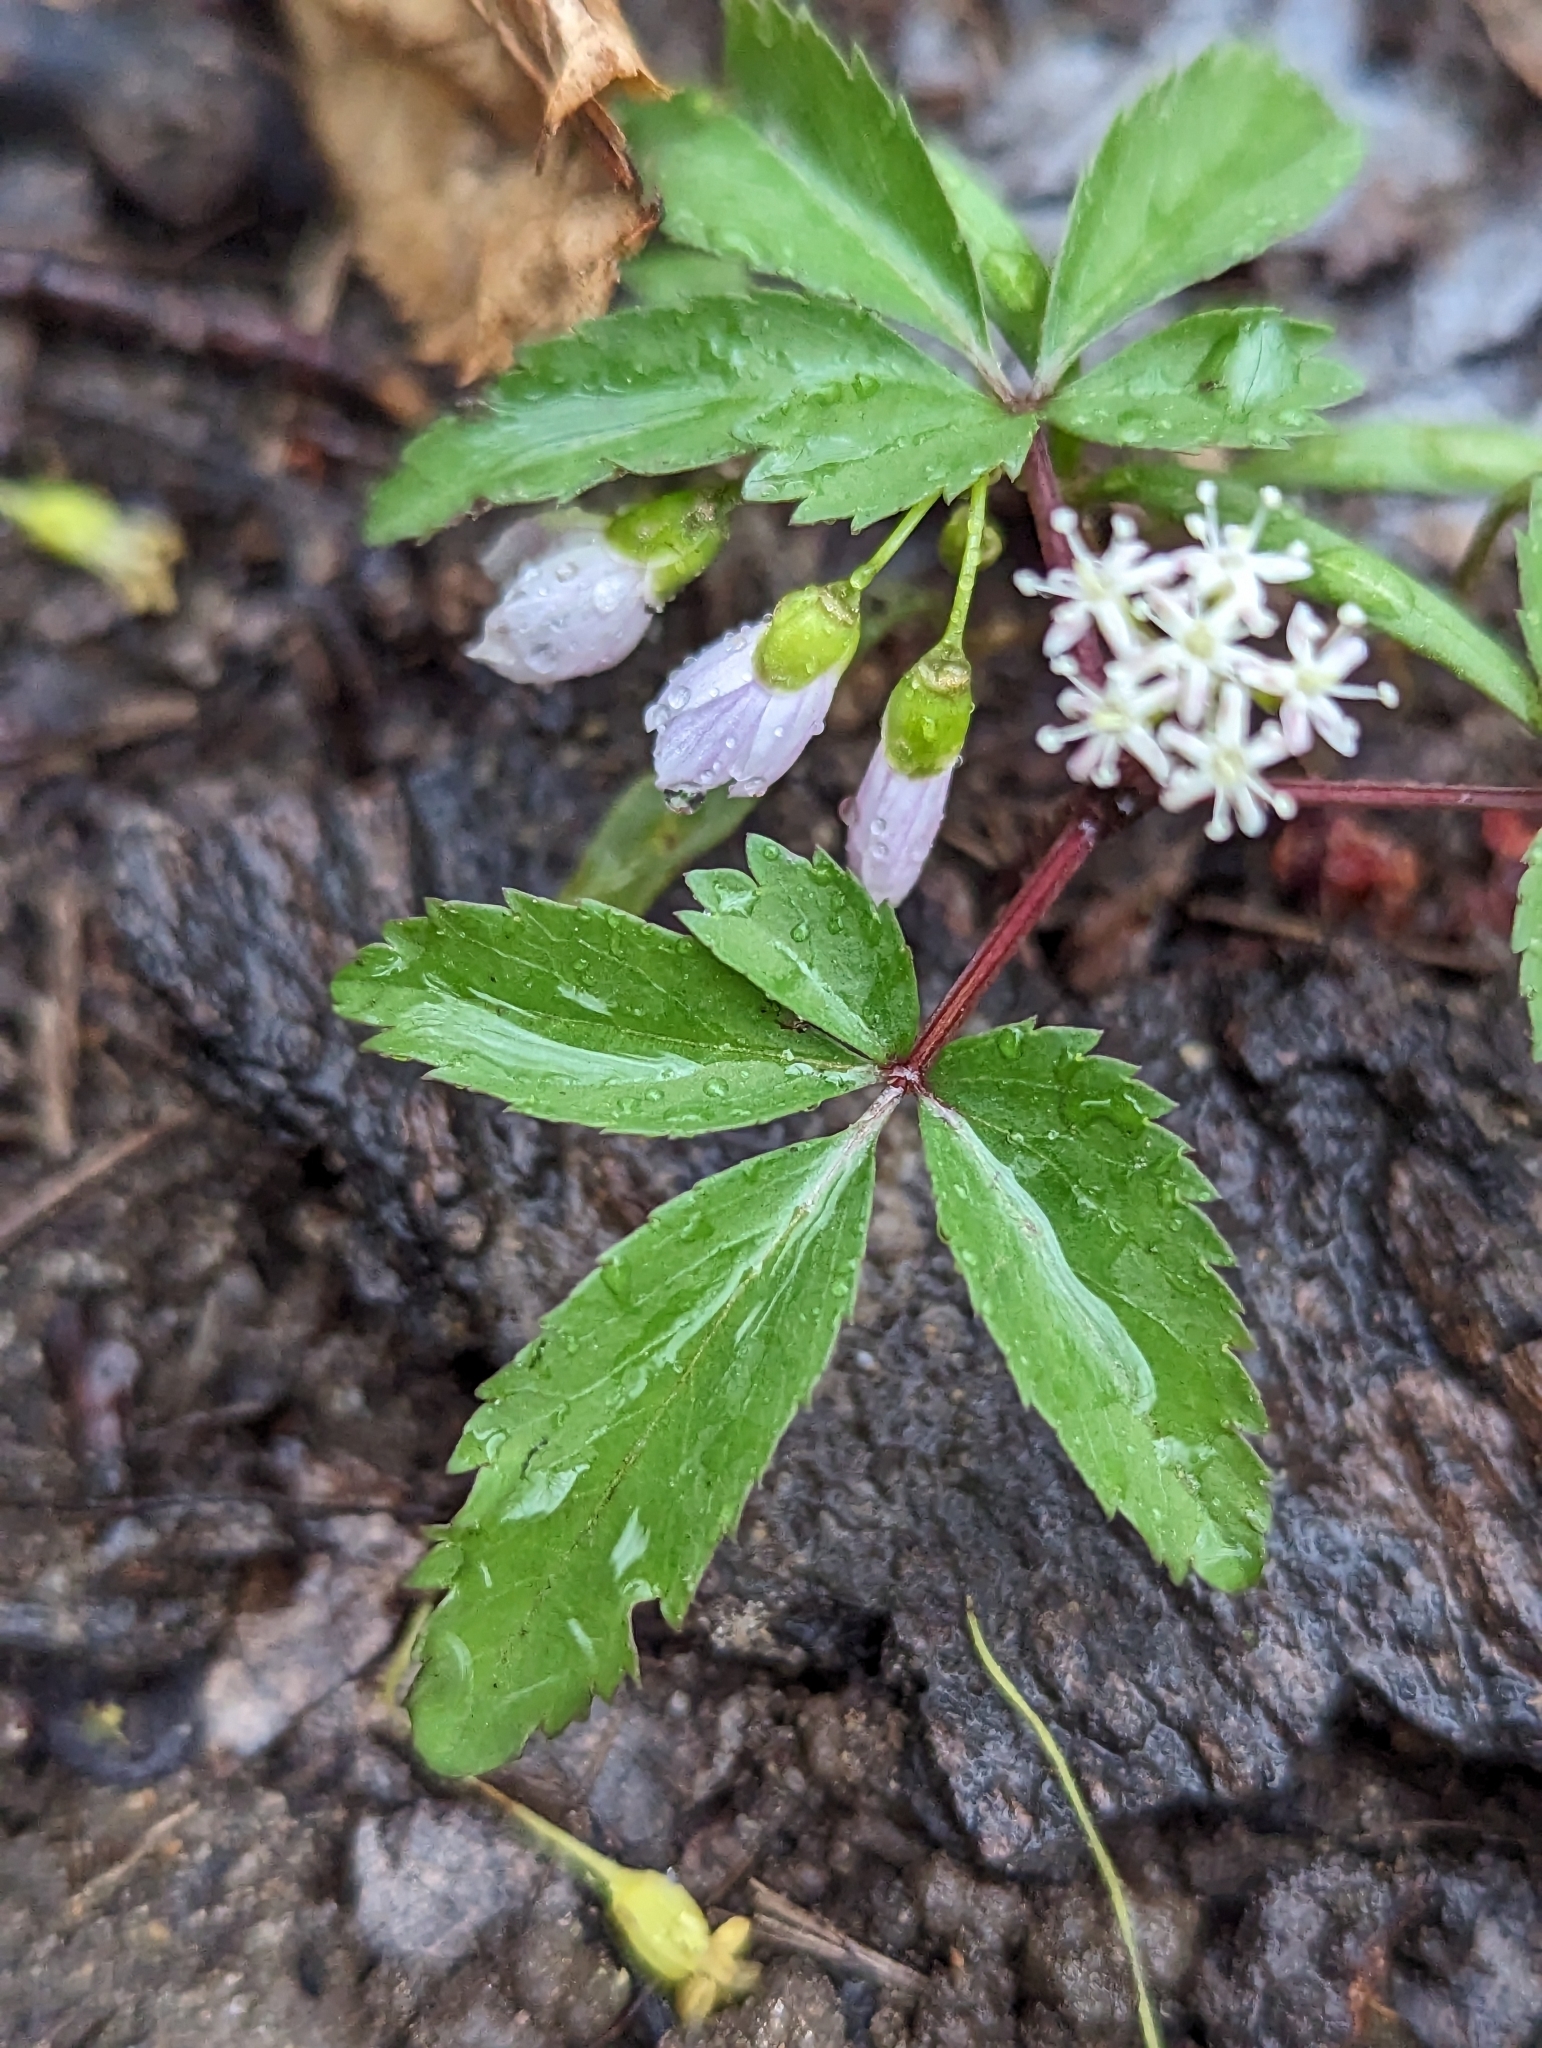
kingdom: Plantae
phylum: Tracheophyta
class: Magnoliopsida
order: Apiales
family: Araliaceae
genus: Panax
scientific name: Panax trifolius
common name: Dwarf ginseng
